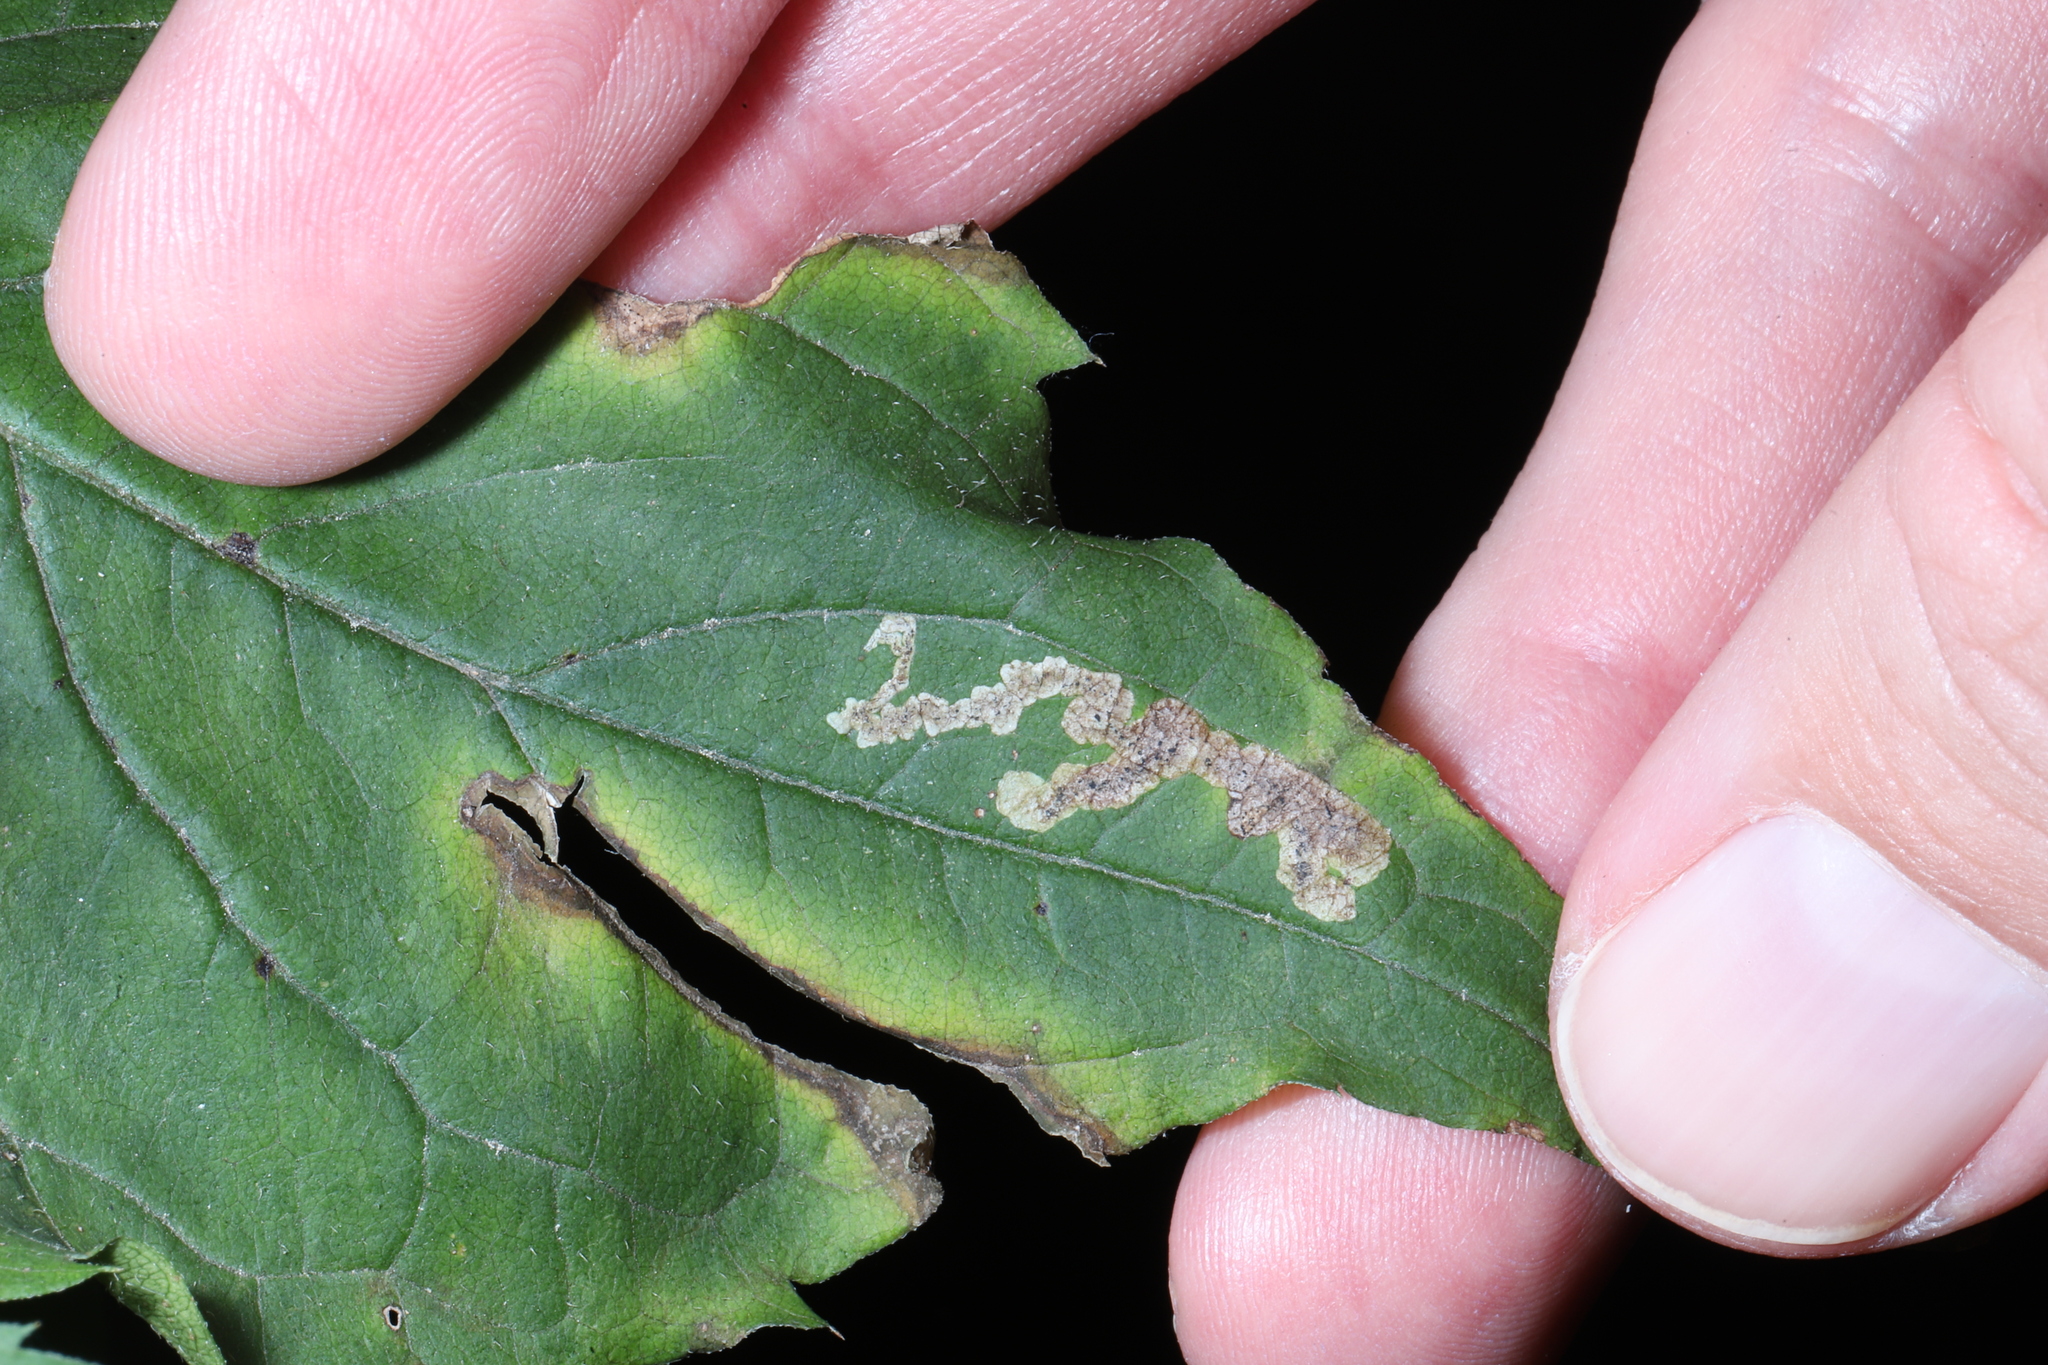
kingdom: Animalia
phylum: Arthropoda
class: Insecta
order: Diptera
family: Agromyzidae
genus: Liriomyza
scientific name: Liriomyza limopsis
